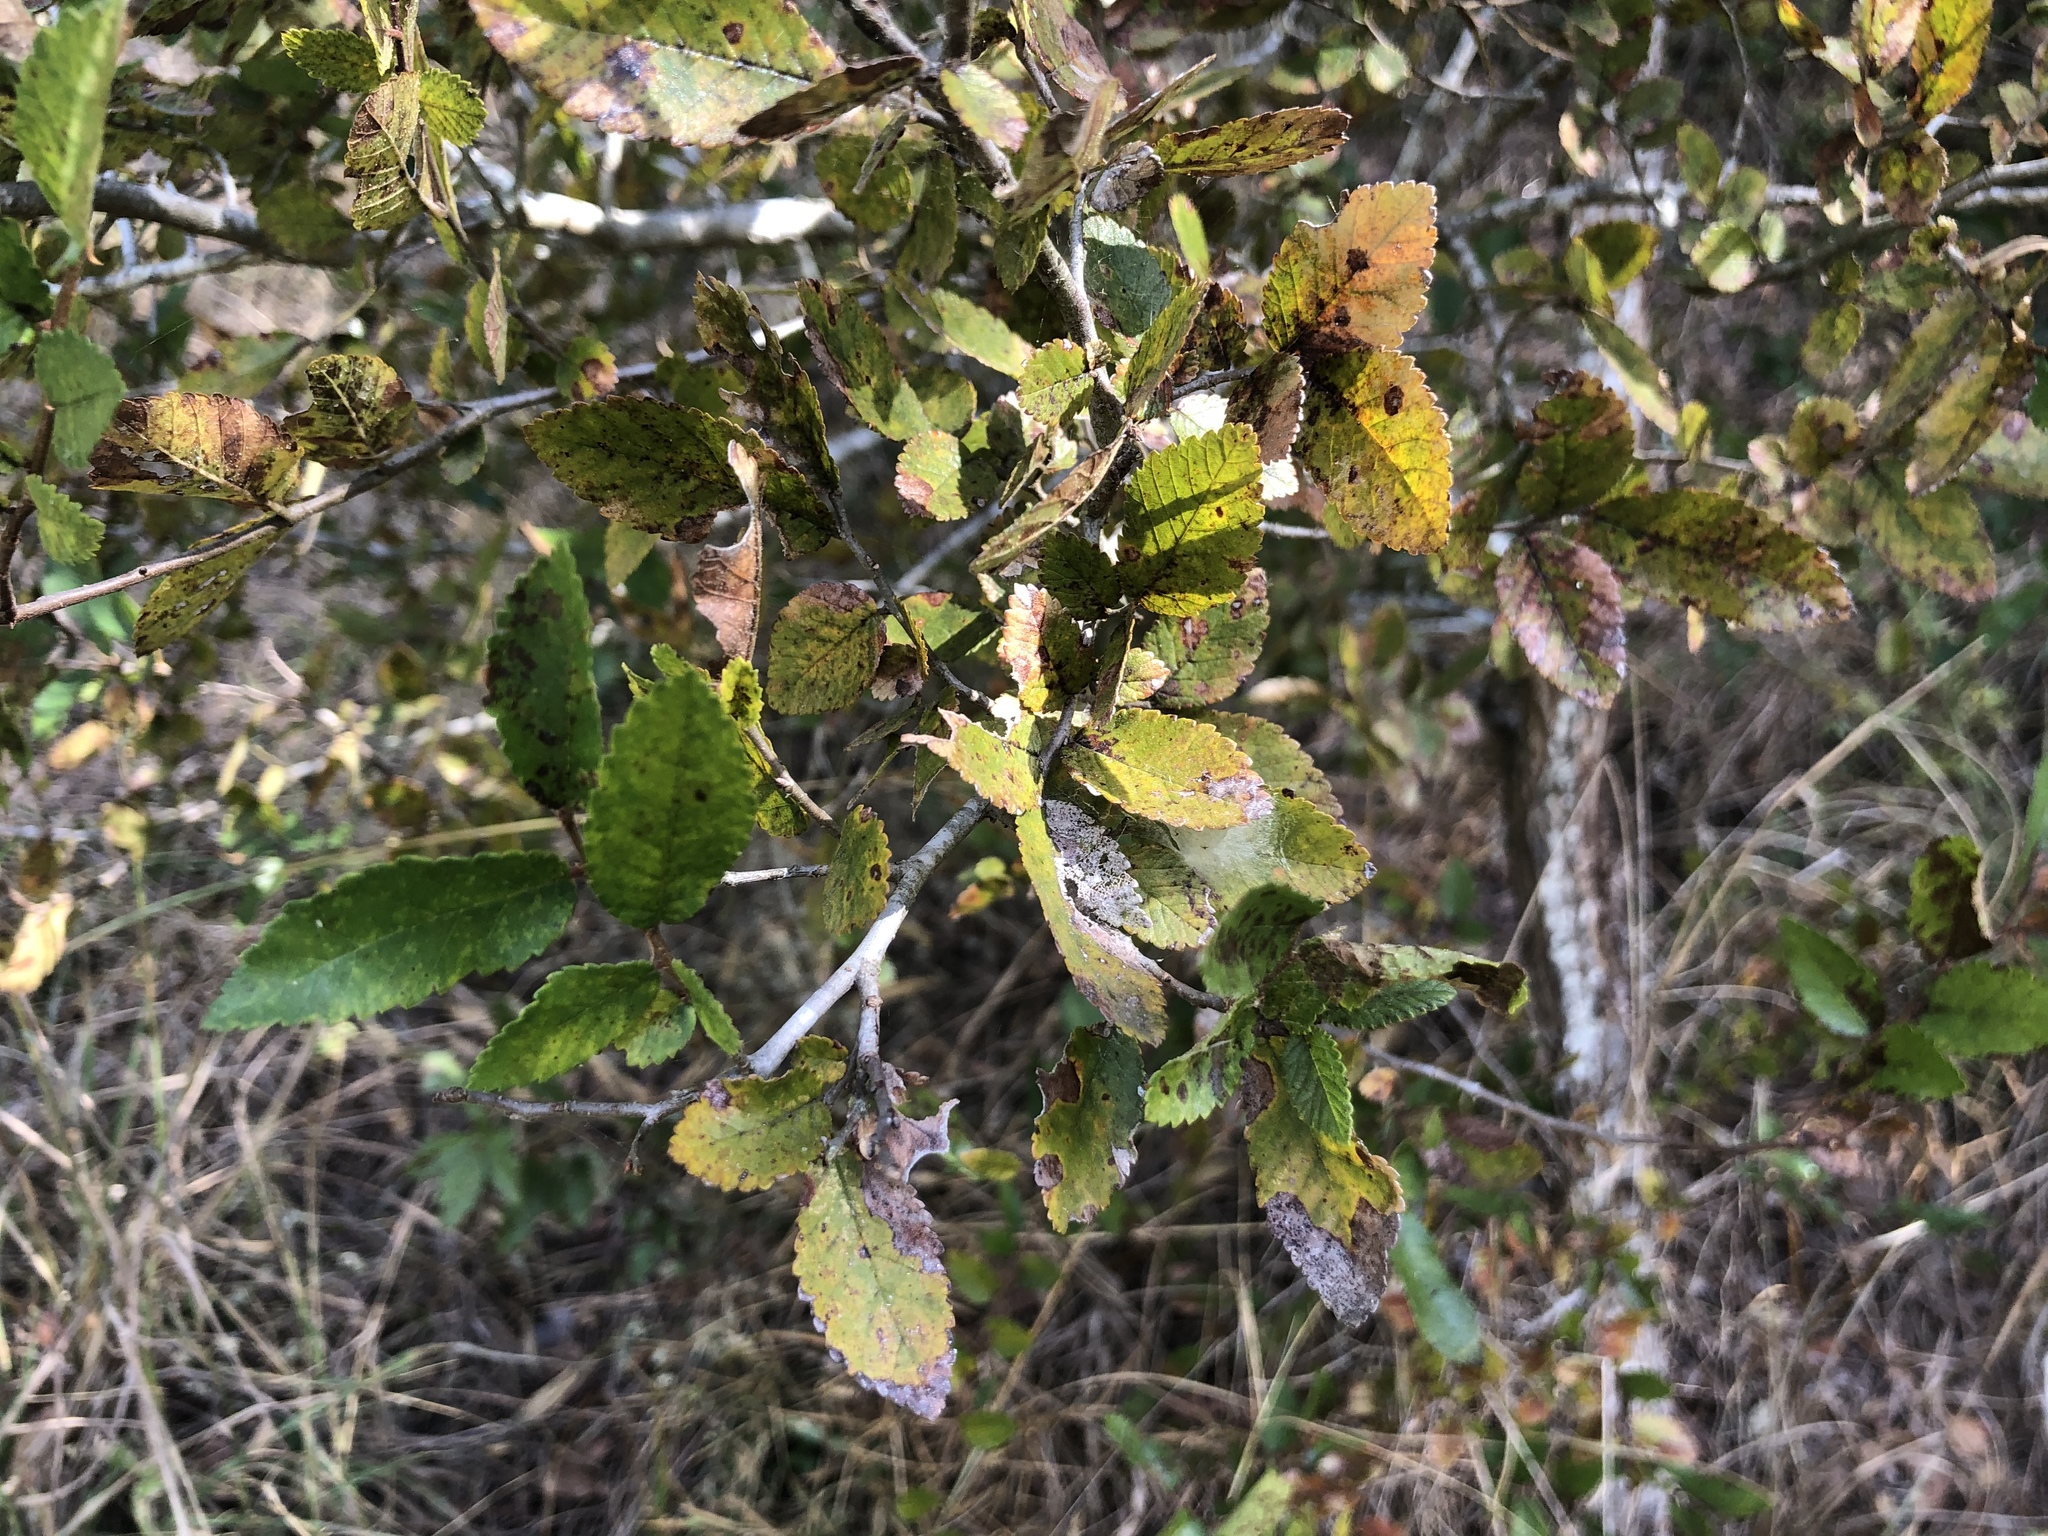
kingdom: Plantae
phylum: Tracheophyta
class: Magnoliopsida
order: Rosales
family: Ulmaceae
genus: Ulmus
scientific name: Ulmus crassifolia
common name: Basket elm
